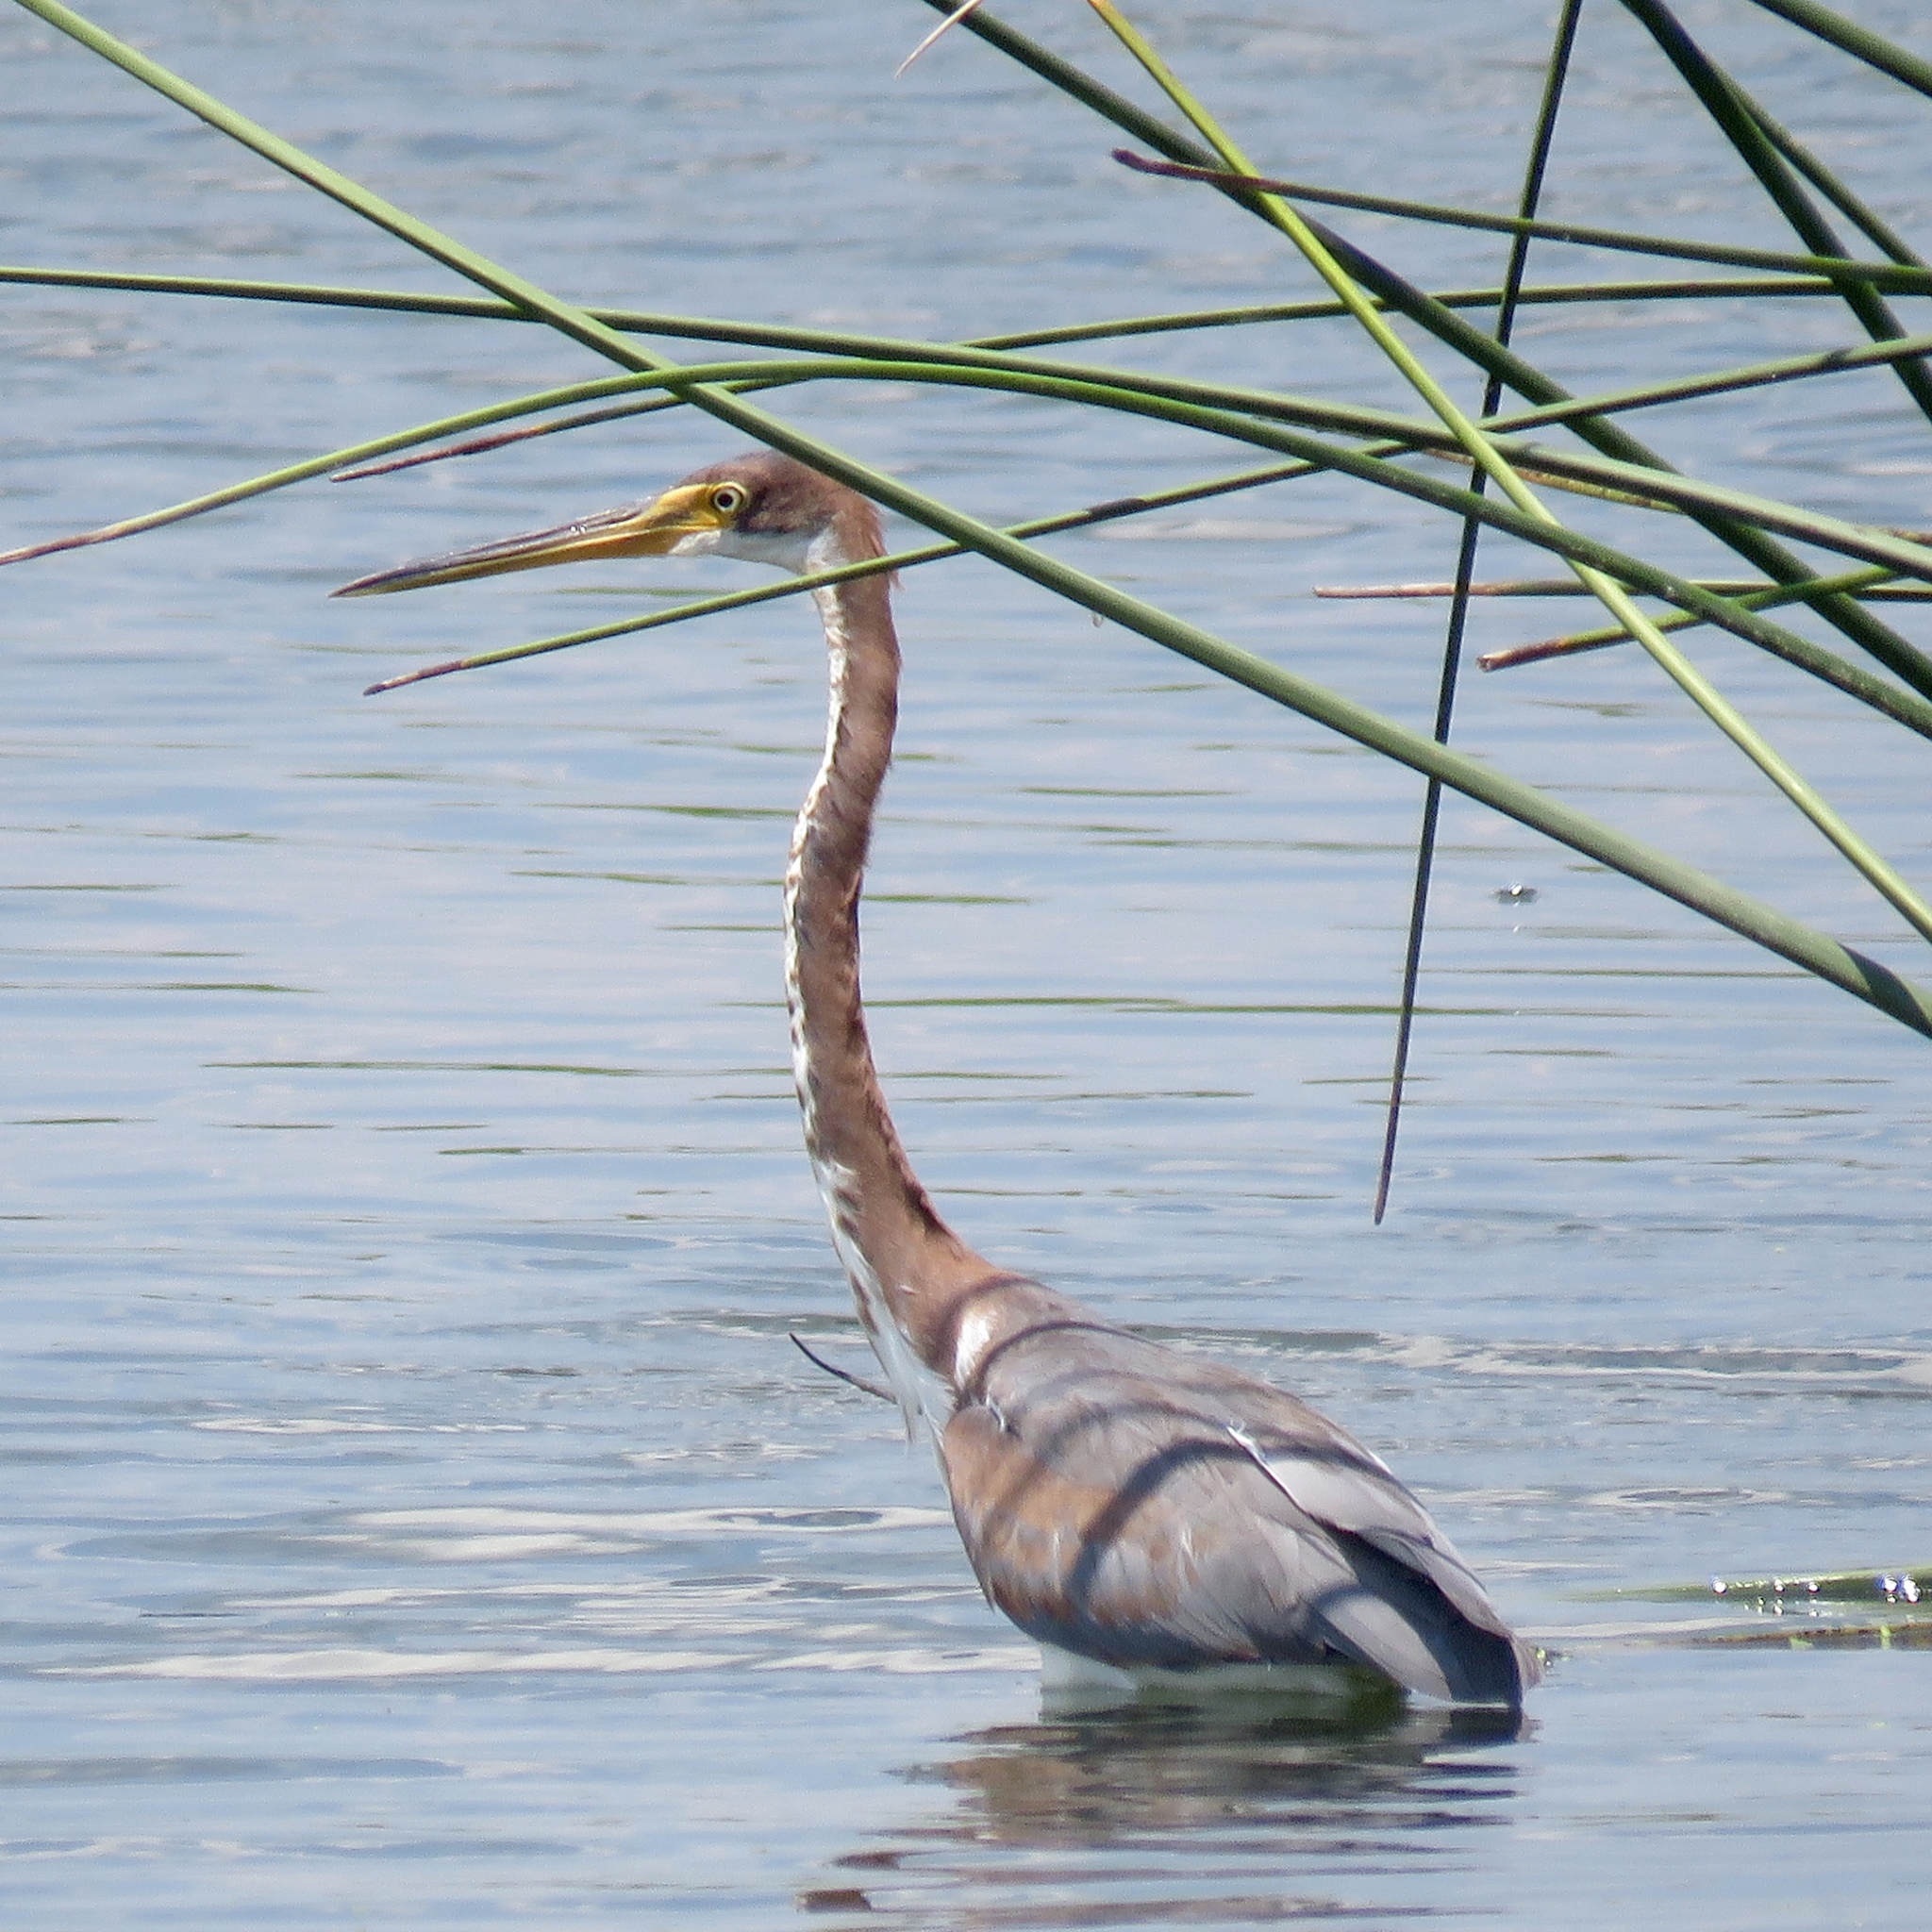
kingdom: Animalia
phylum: Chordata
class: Aves
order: Pelecaniformes
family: Ardeidae
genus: Egretta
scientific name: Egretta tricolor
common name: Tricolored heron
